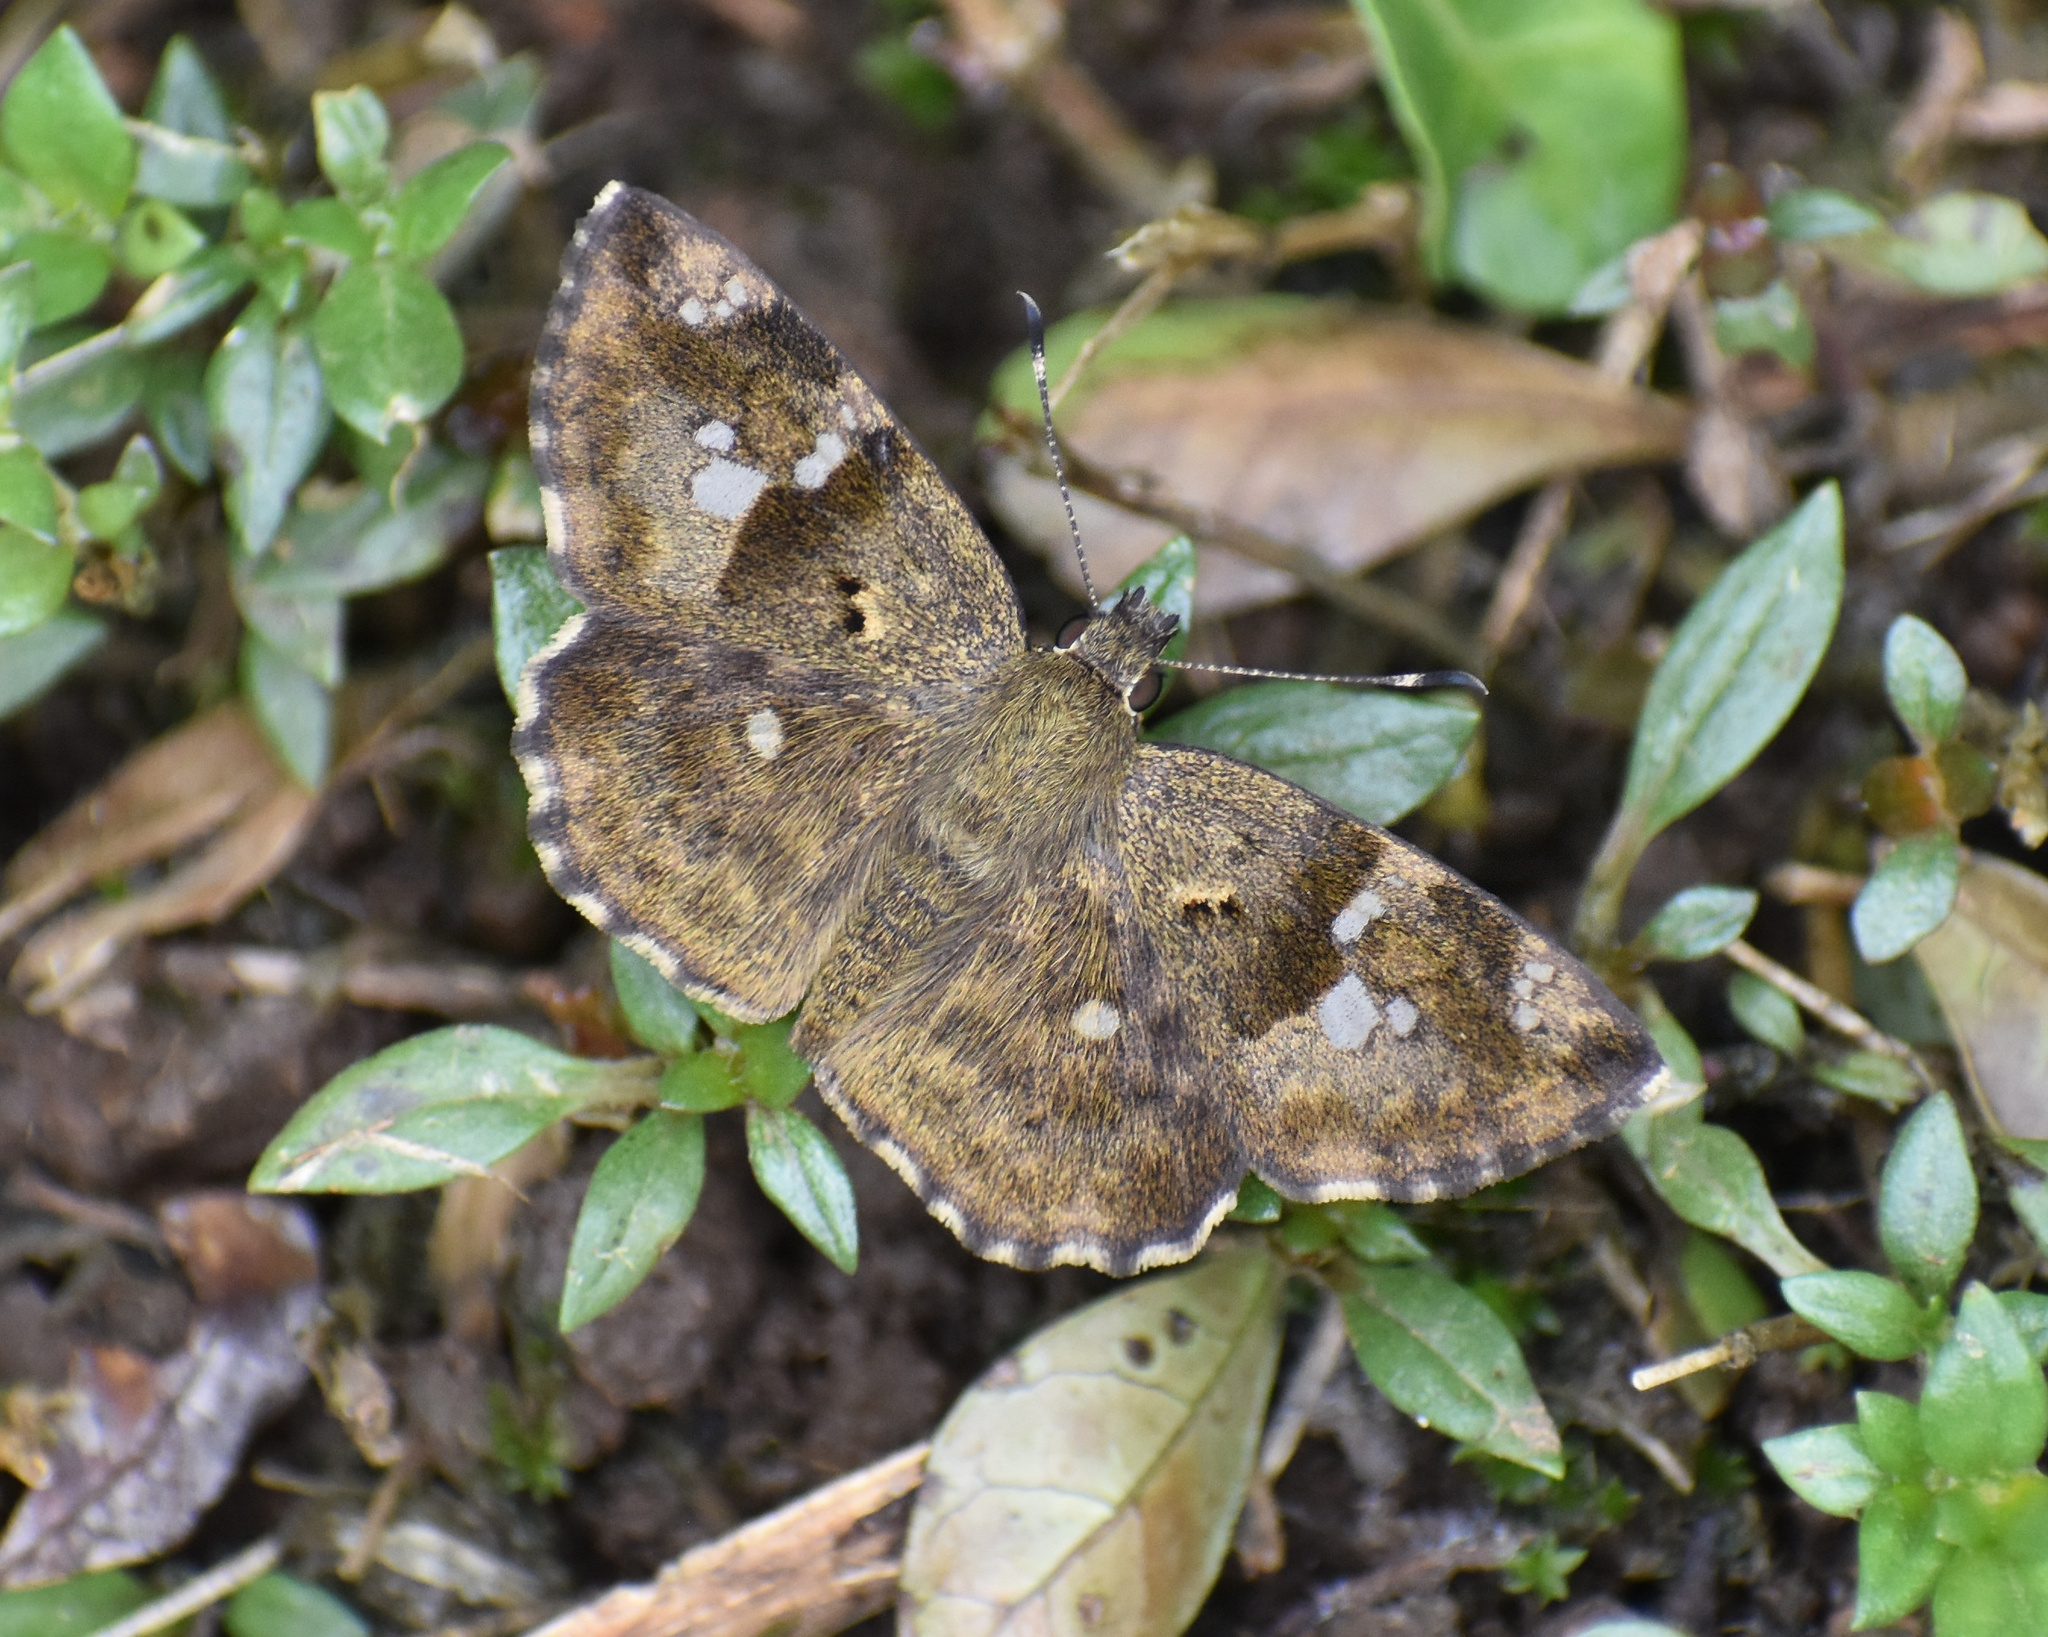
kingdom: Animalia
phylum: Arthropoda
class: Insecta
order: Lepidoptera
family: Hesperiidae
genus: Sarangesa
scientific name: Sarangesa motozi
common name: Forest elfin
